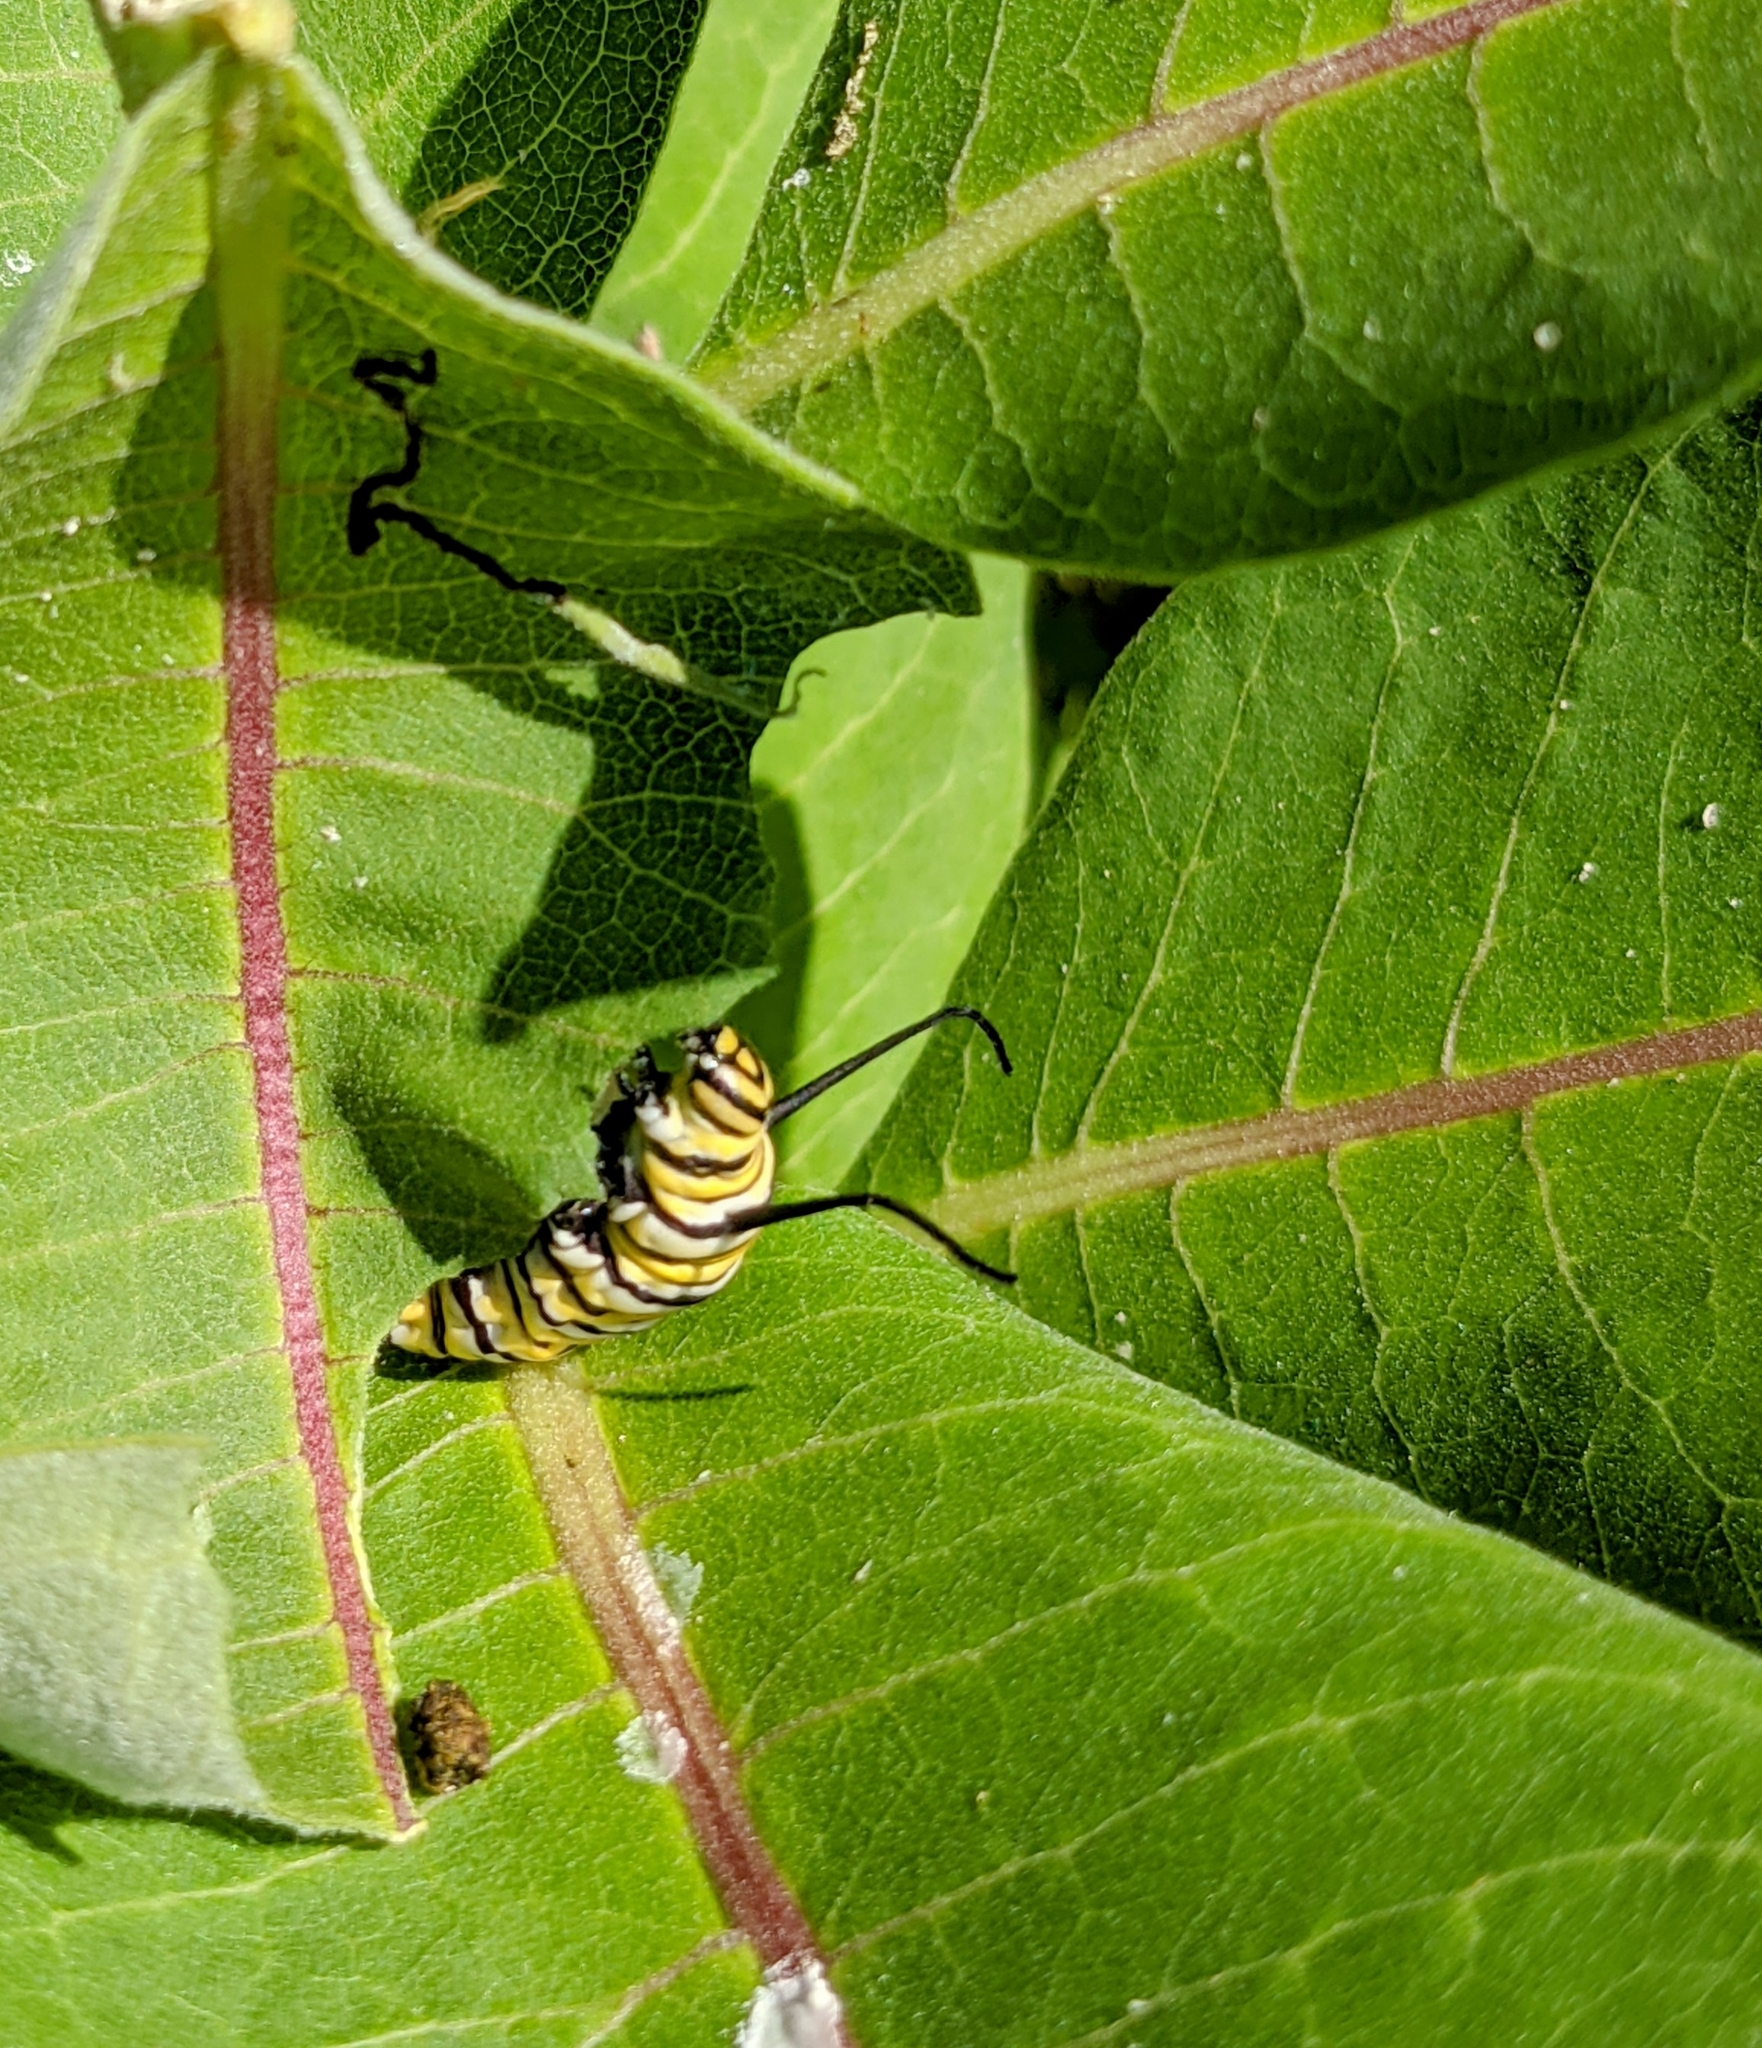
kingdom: Animalia
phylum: Arthropoda
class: Insecta
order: Lepidoptera
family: Nymphalidae
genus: Danaus
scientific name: Danaus plexippus
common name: Monarch
